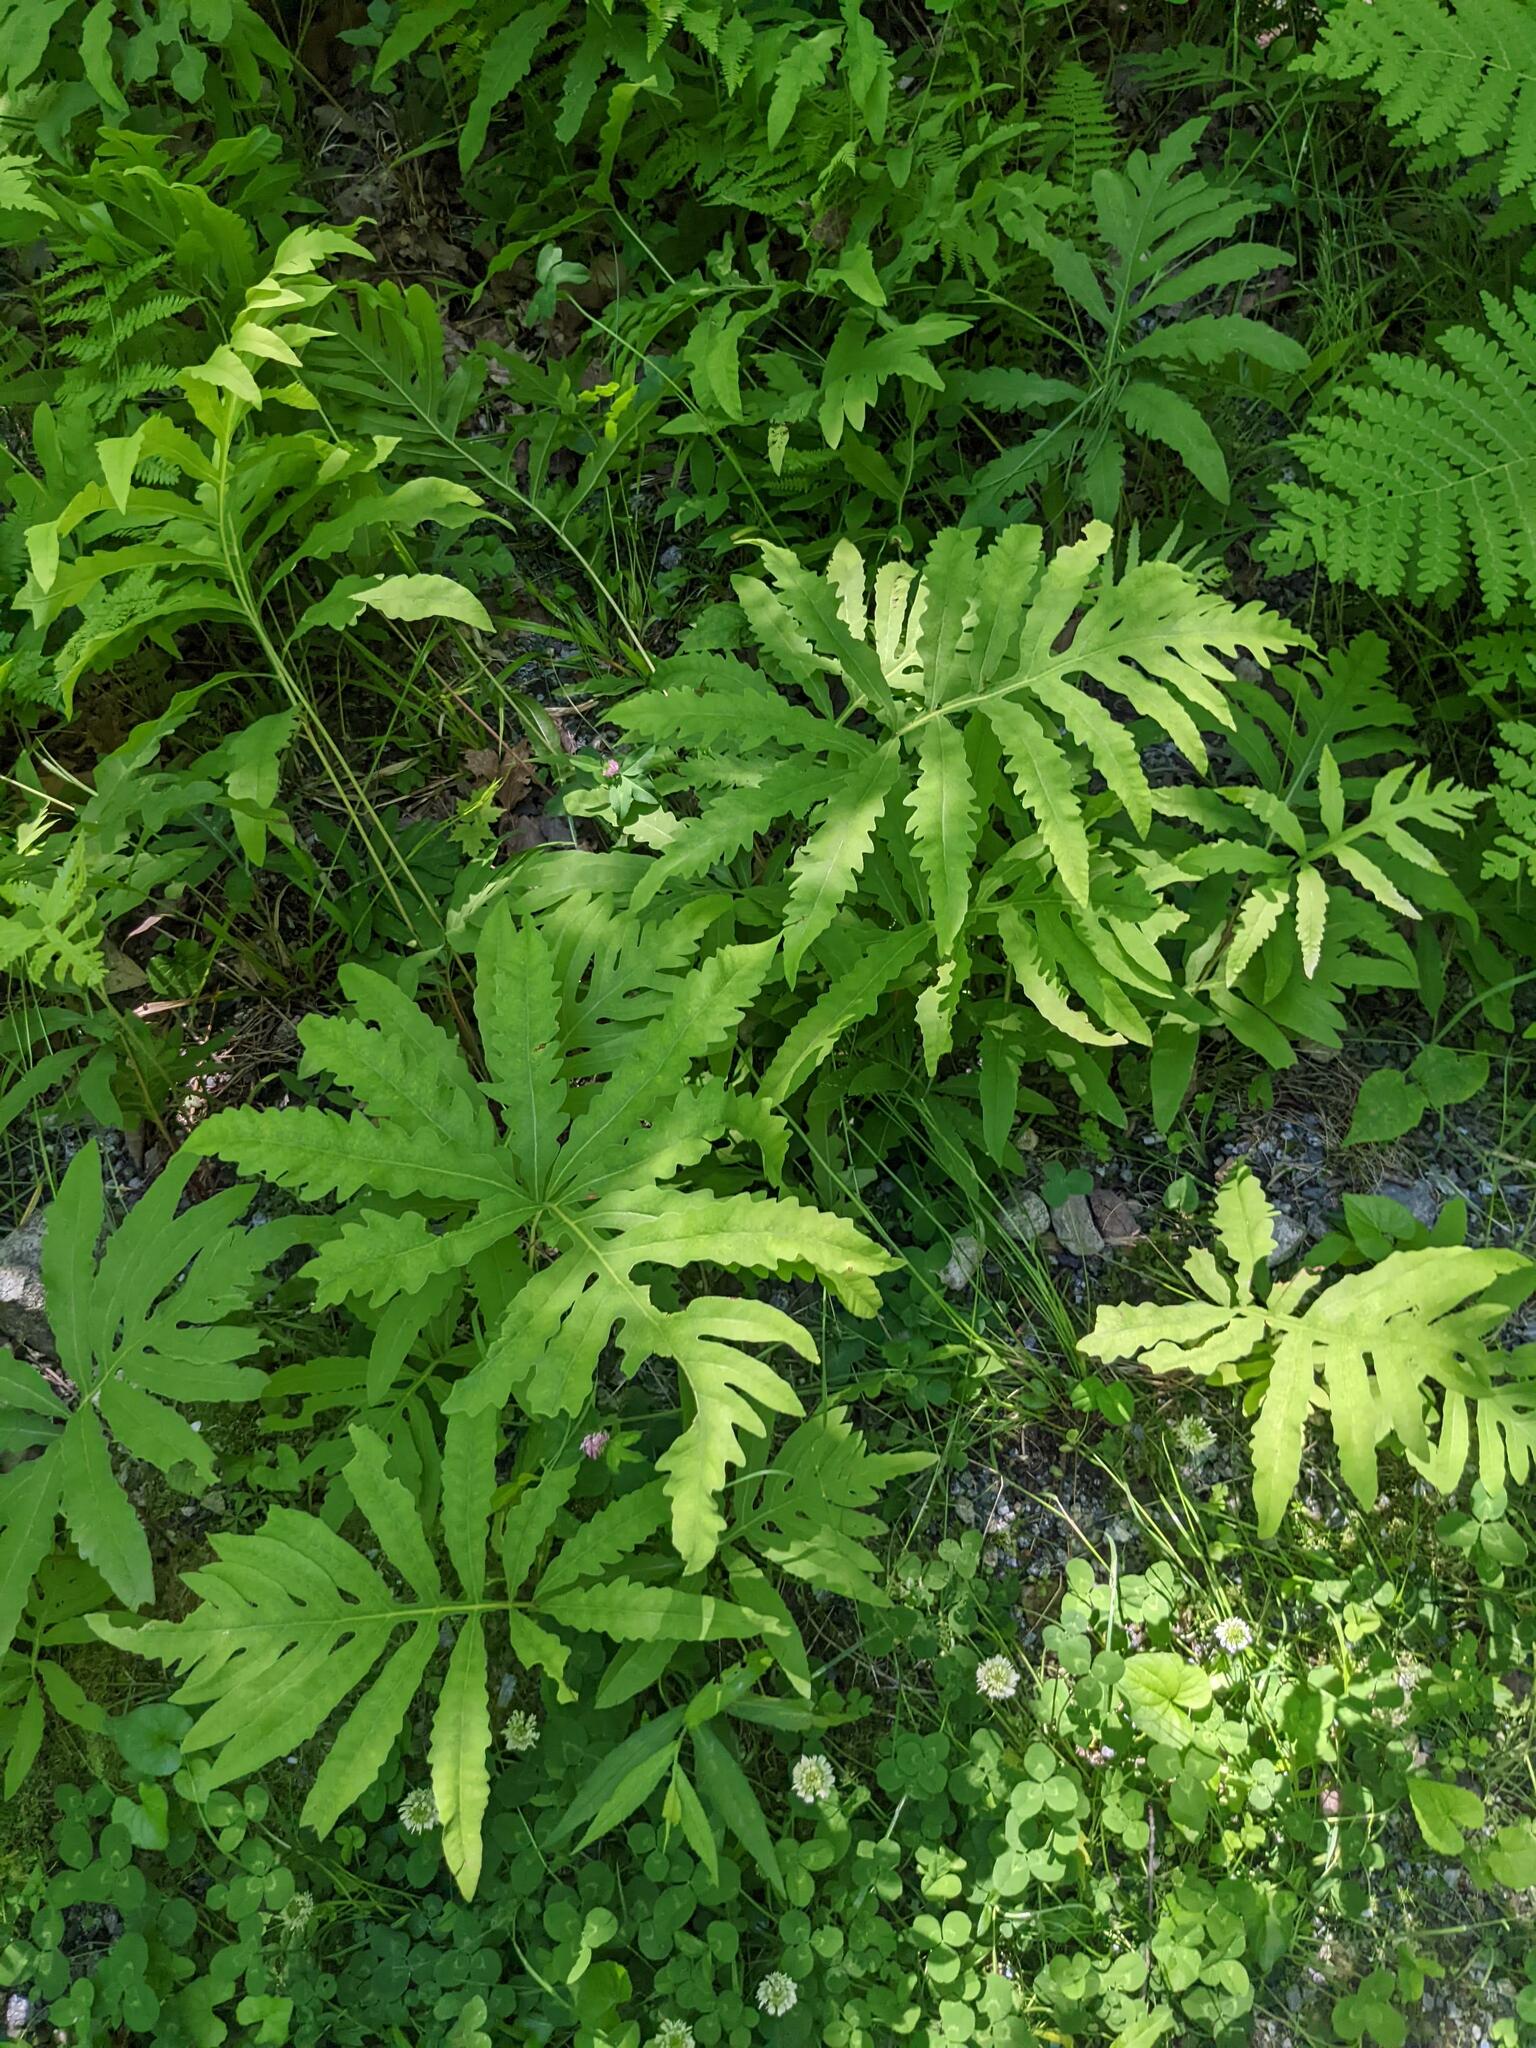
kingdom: Plantae
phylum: Tracheophyta
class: Polypodiopsida
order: Polypodiales
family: Onocleaceae
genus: Onoclea
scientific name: Onoclea sensibilis
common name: Sensitive fern
